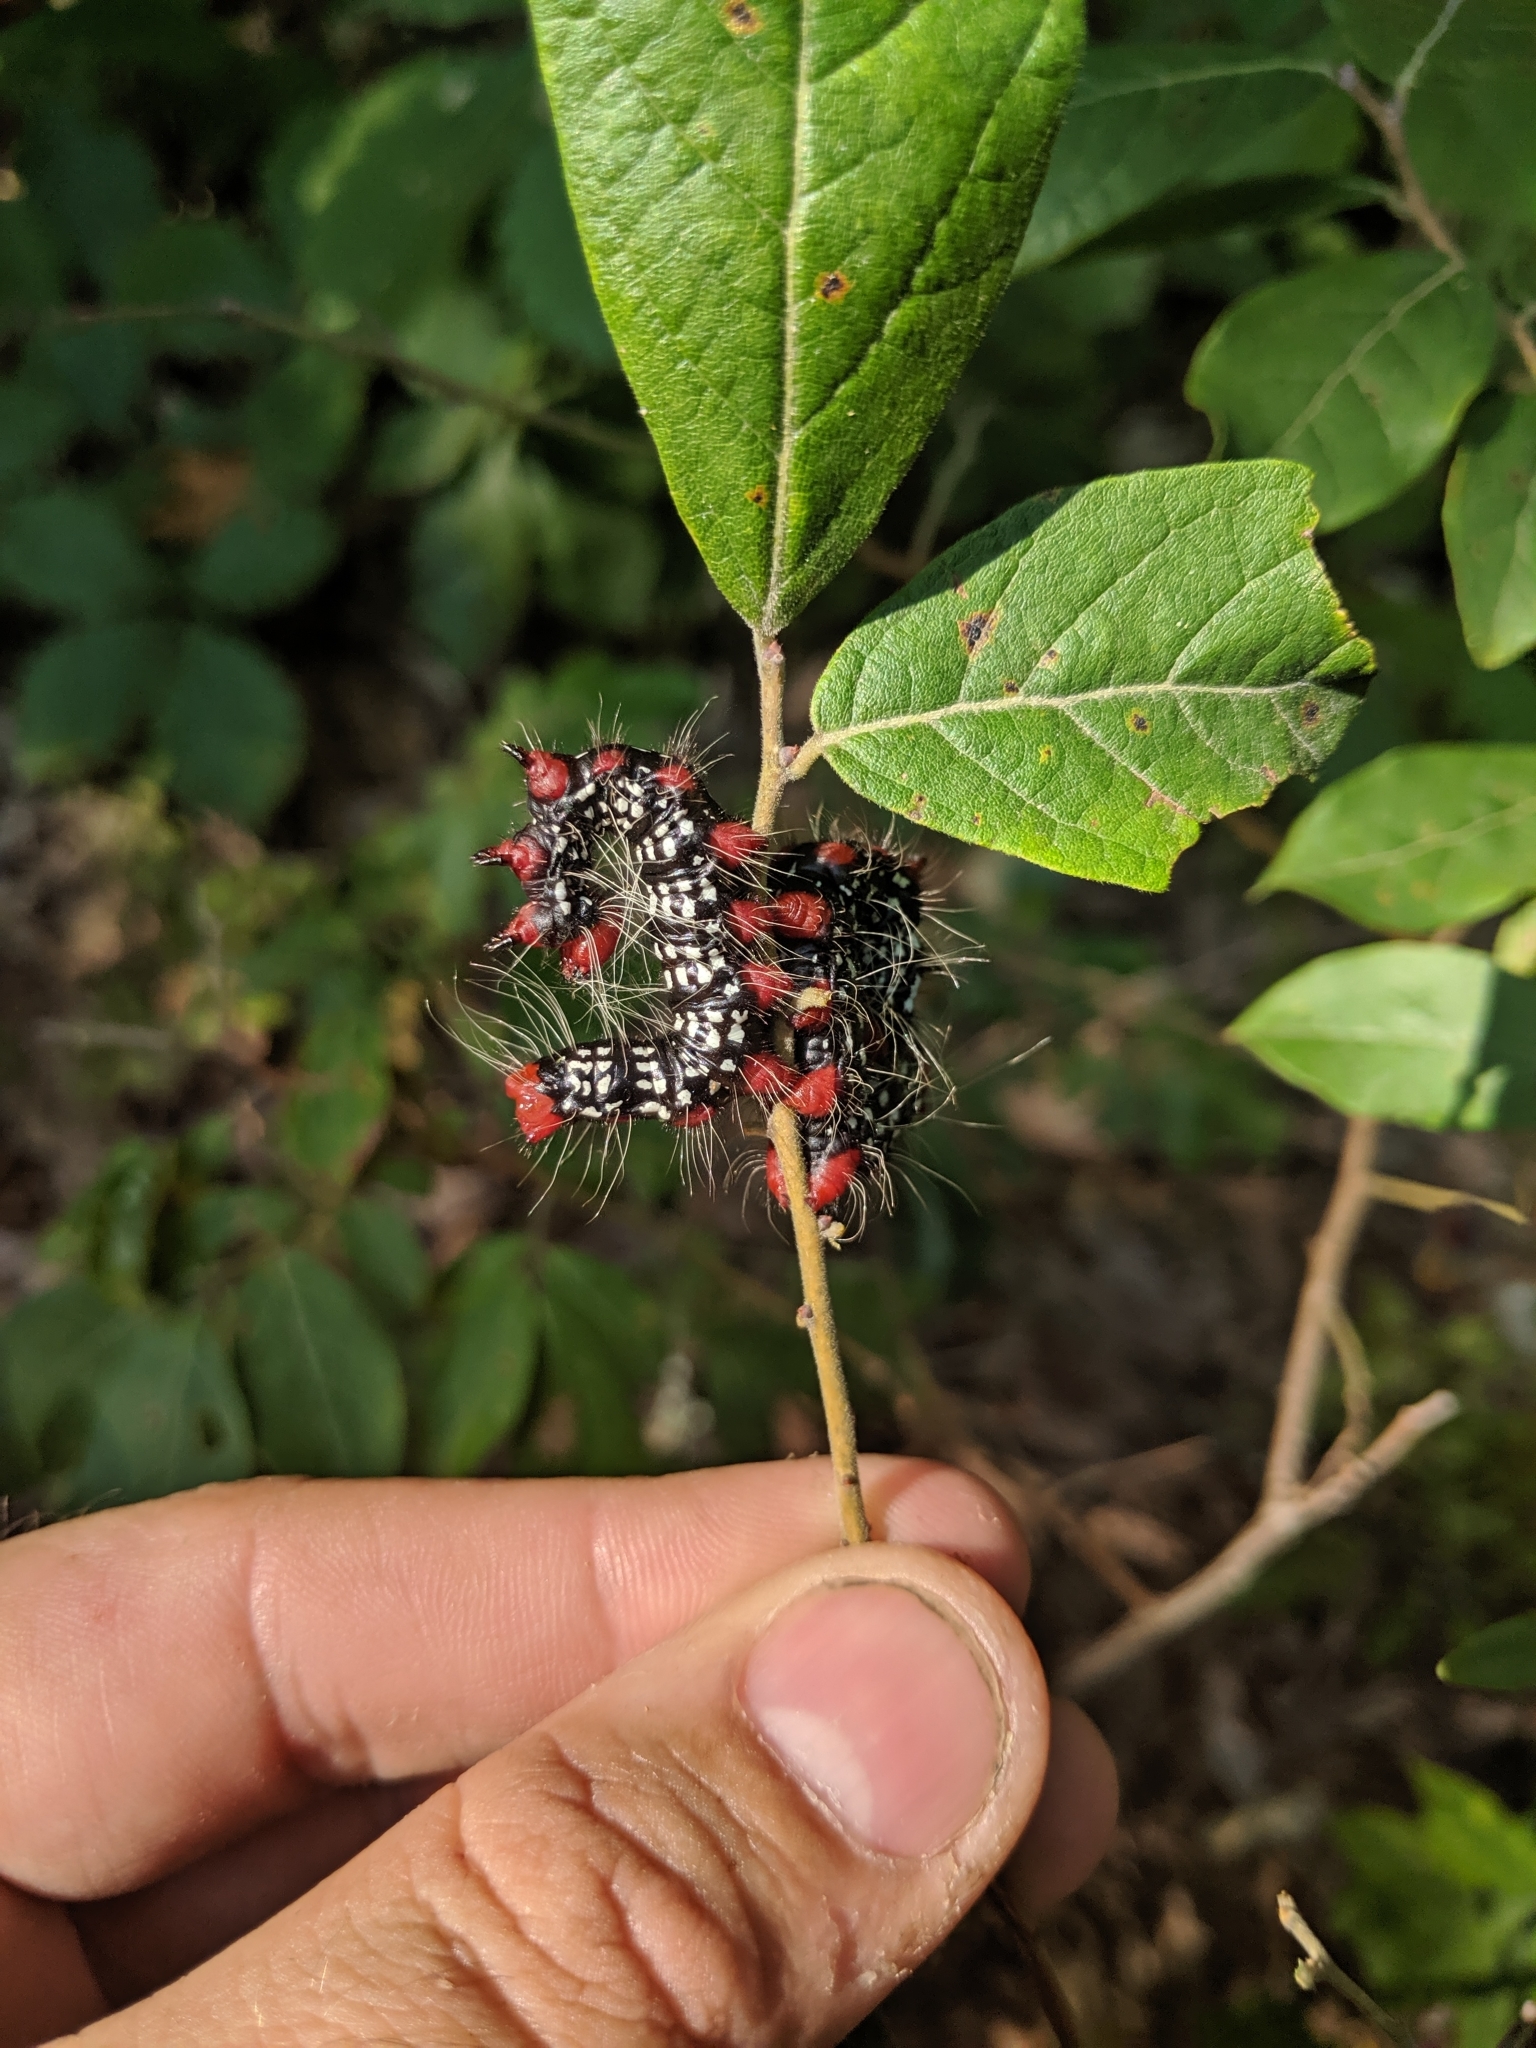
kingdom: Animalia
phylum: Arthropoda
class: Insecta
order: Lepidoptera
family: Notodontidae
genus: Datana
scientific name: Datana major
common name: Azalea caterpillar
